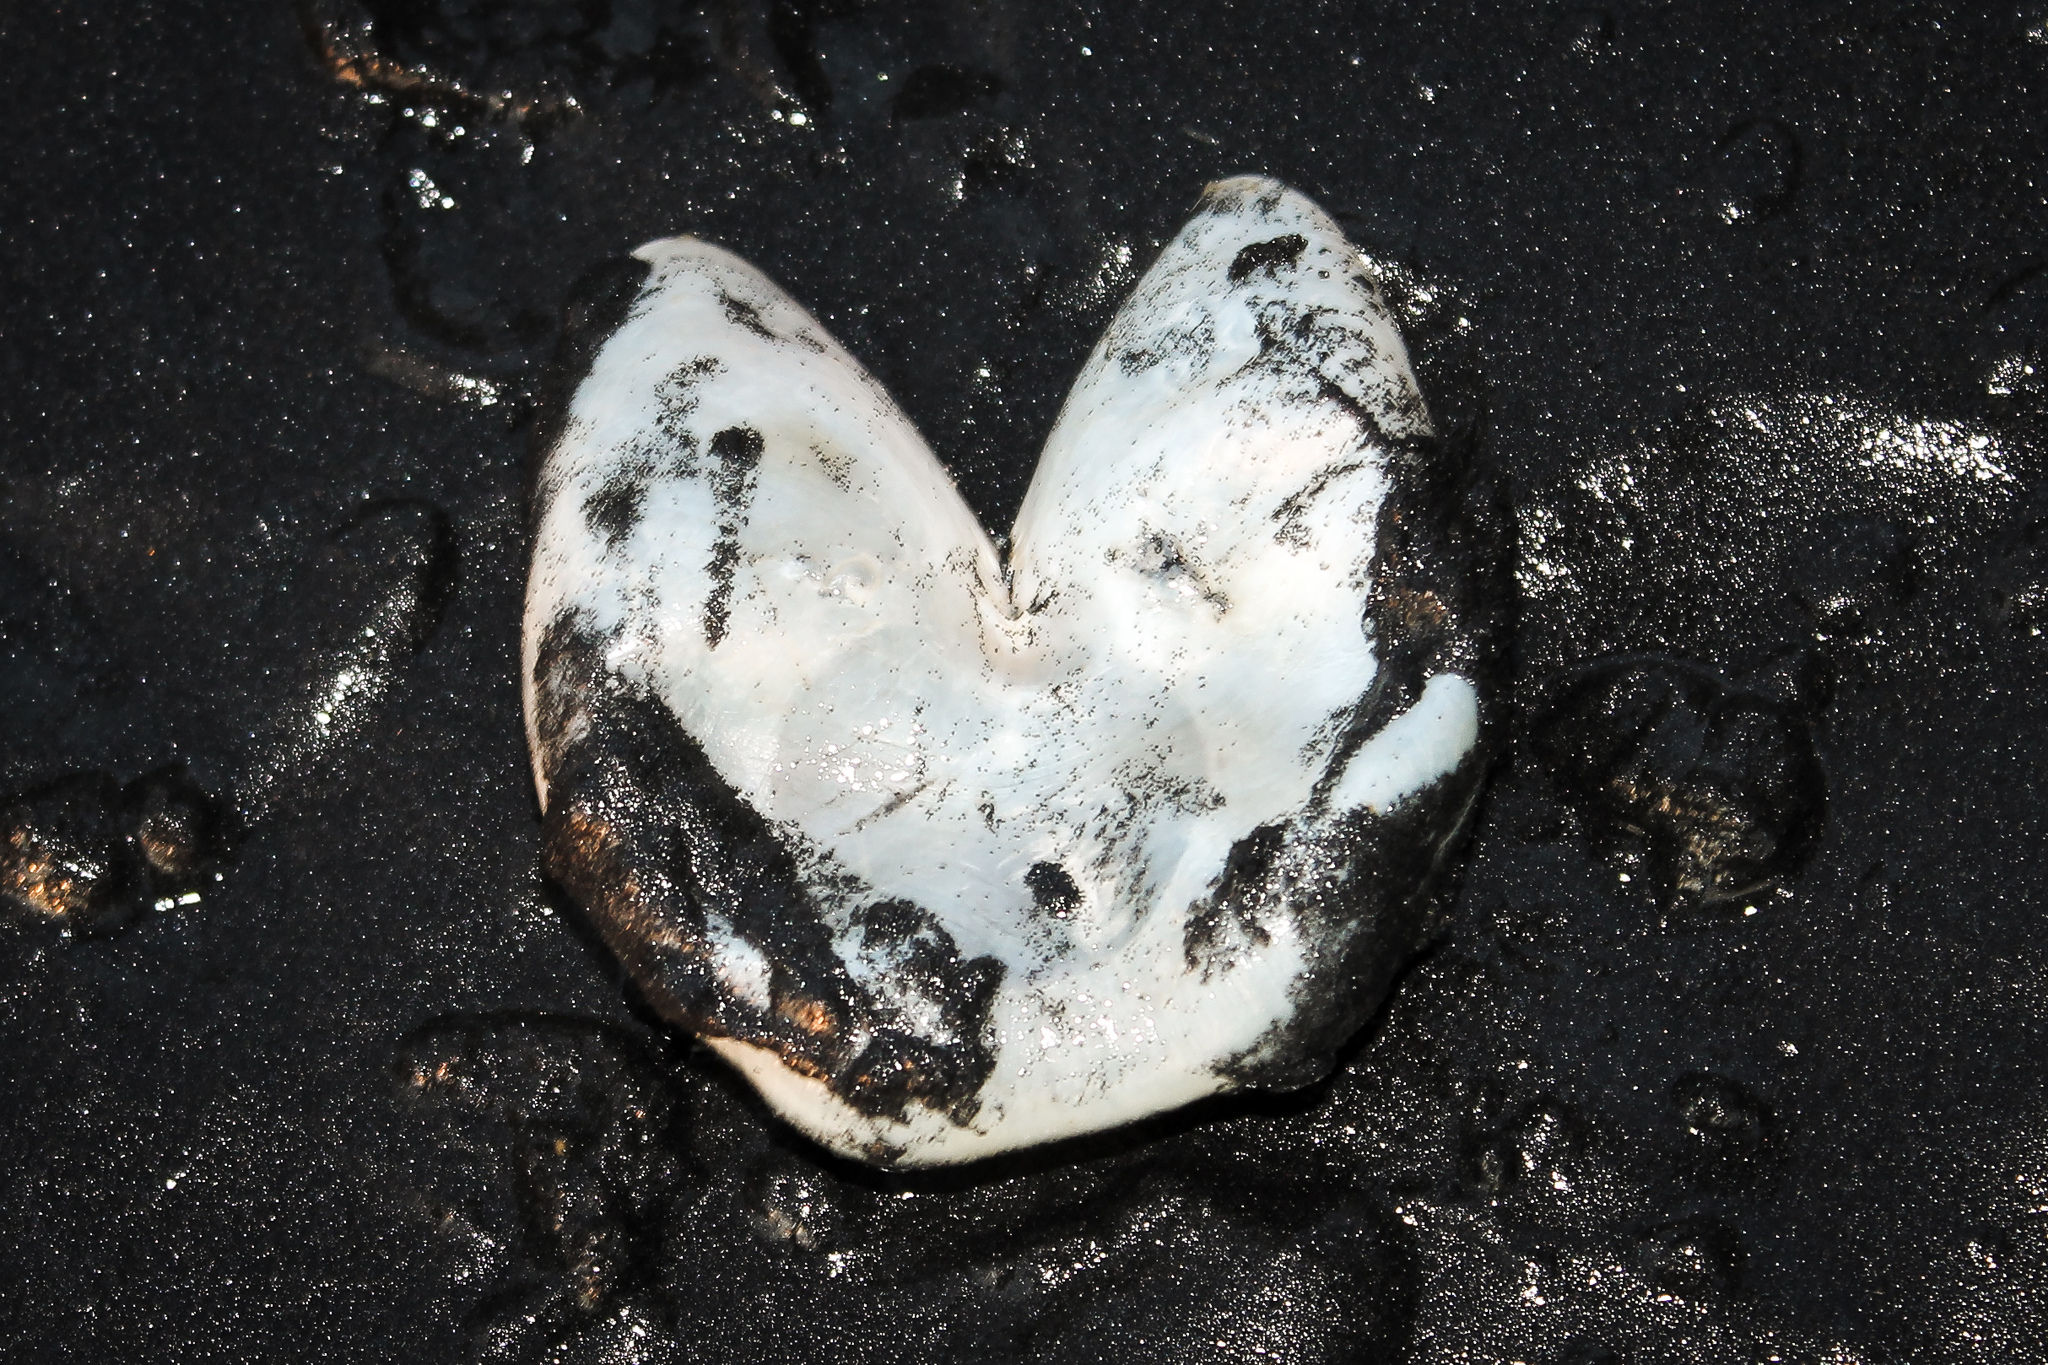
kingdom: Animalia
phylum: Chordata
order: Tetraodontiformes
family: Diodontidae
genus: Allomycterus
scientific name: Allomycterus pilatus
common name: No common name
